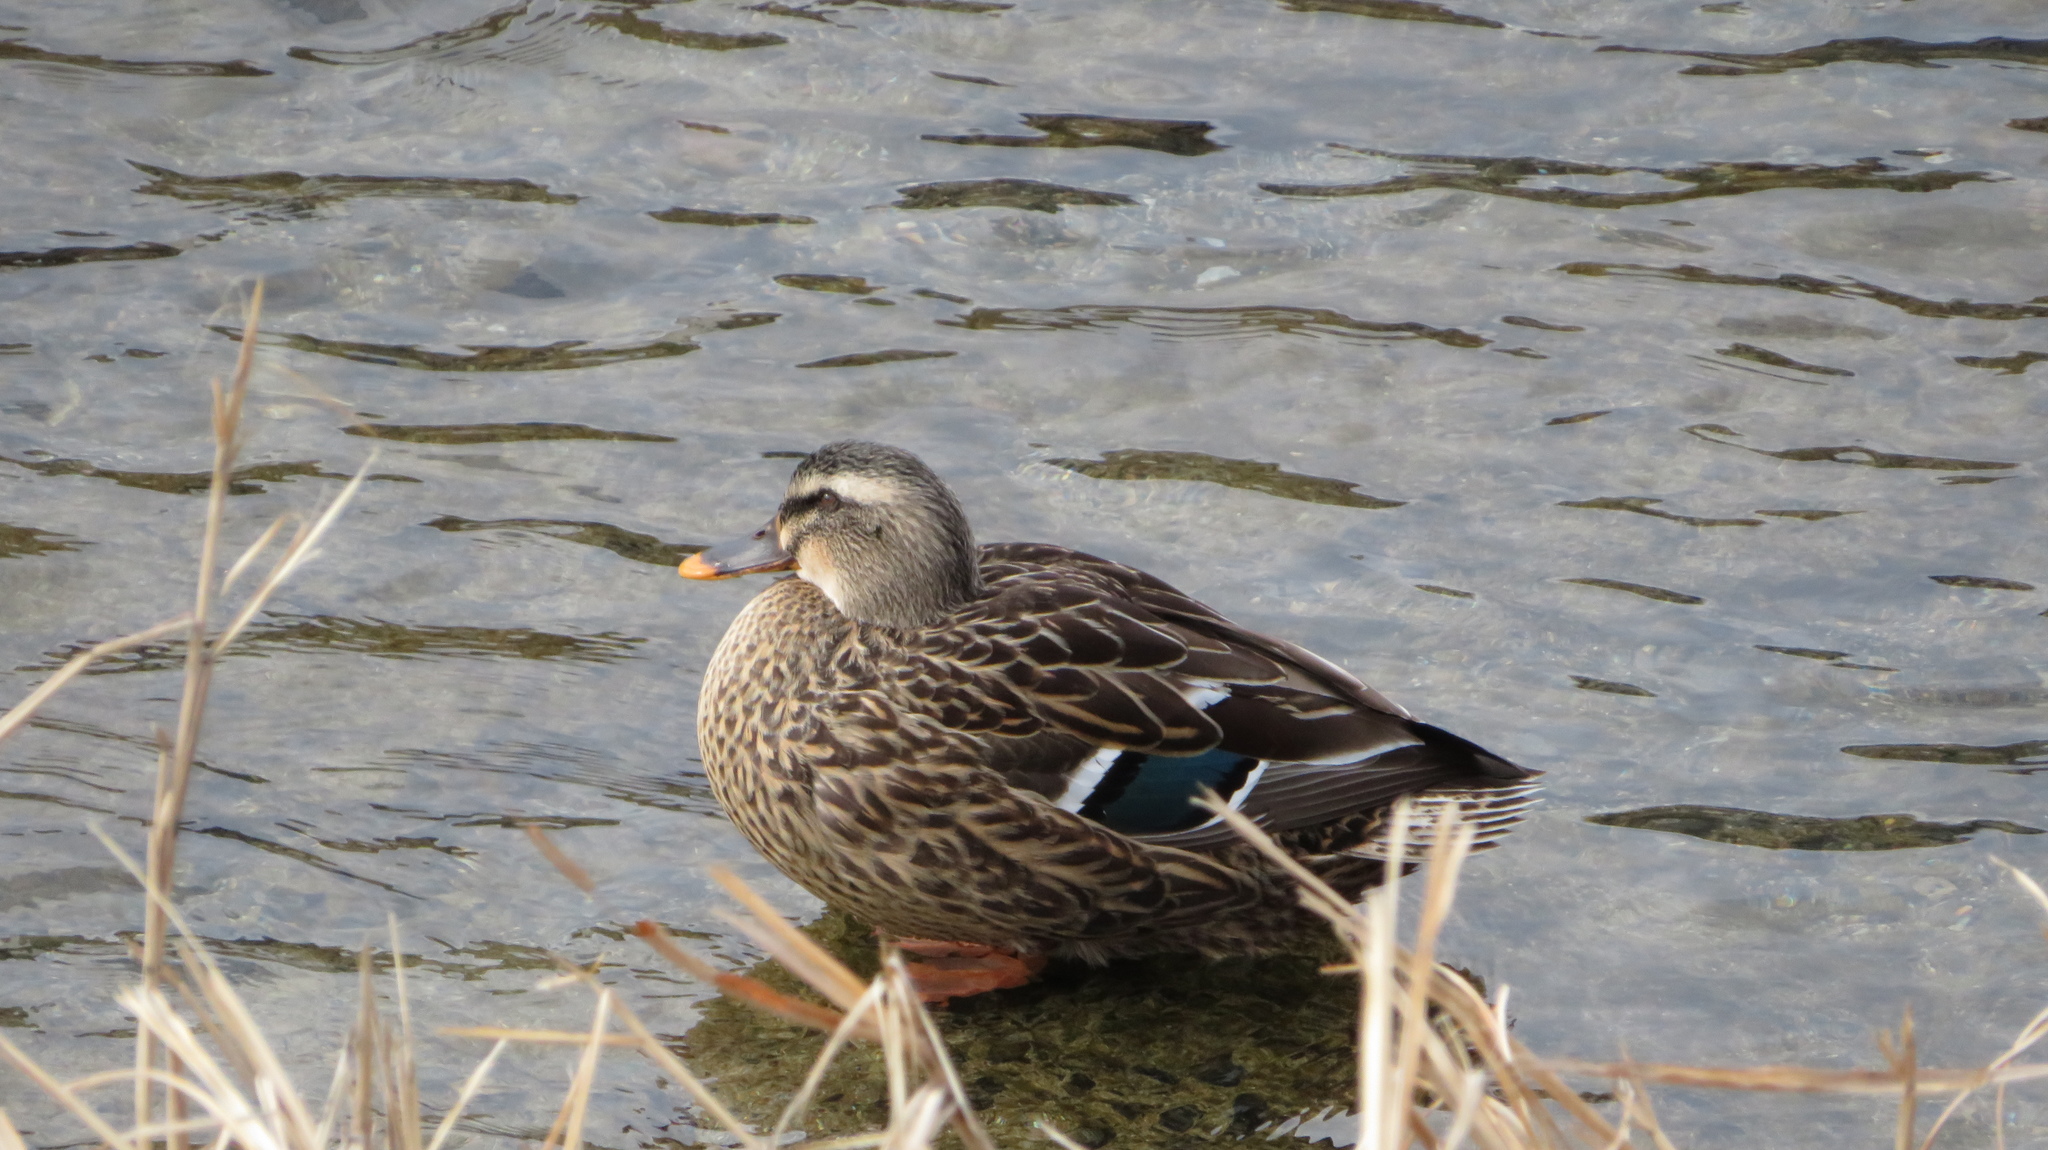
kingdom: Animalia
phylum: Chordata
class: Aves
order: Anseriformes
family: Anatidae
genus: Anas
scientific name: Anas
